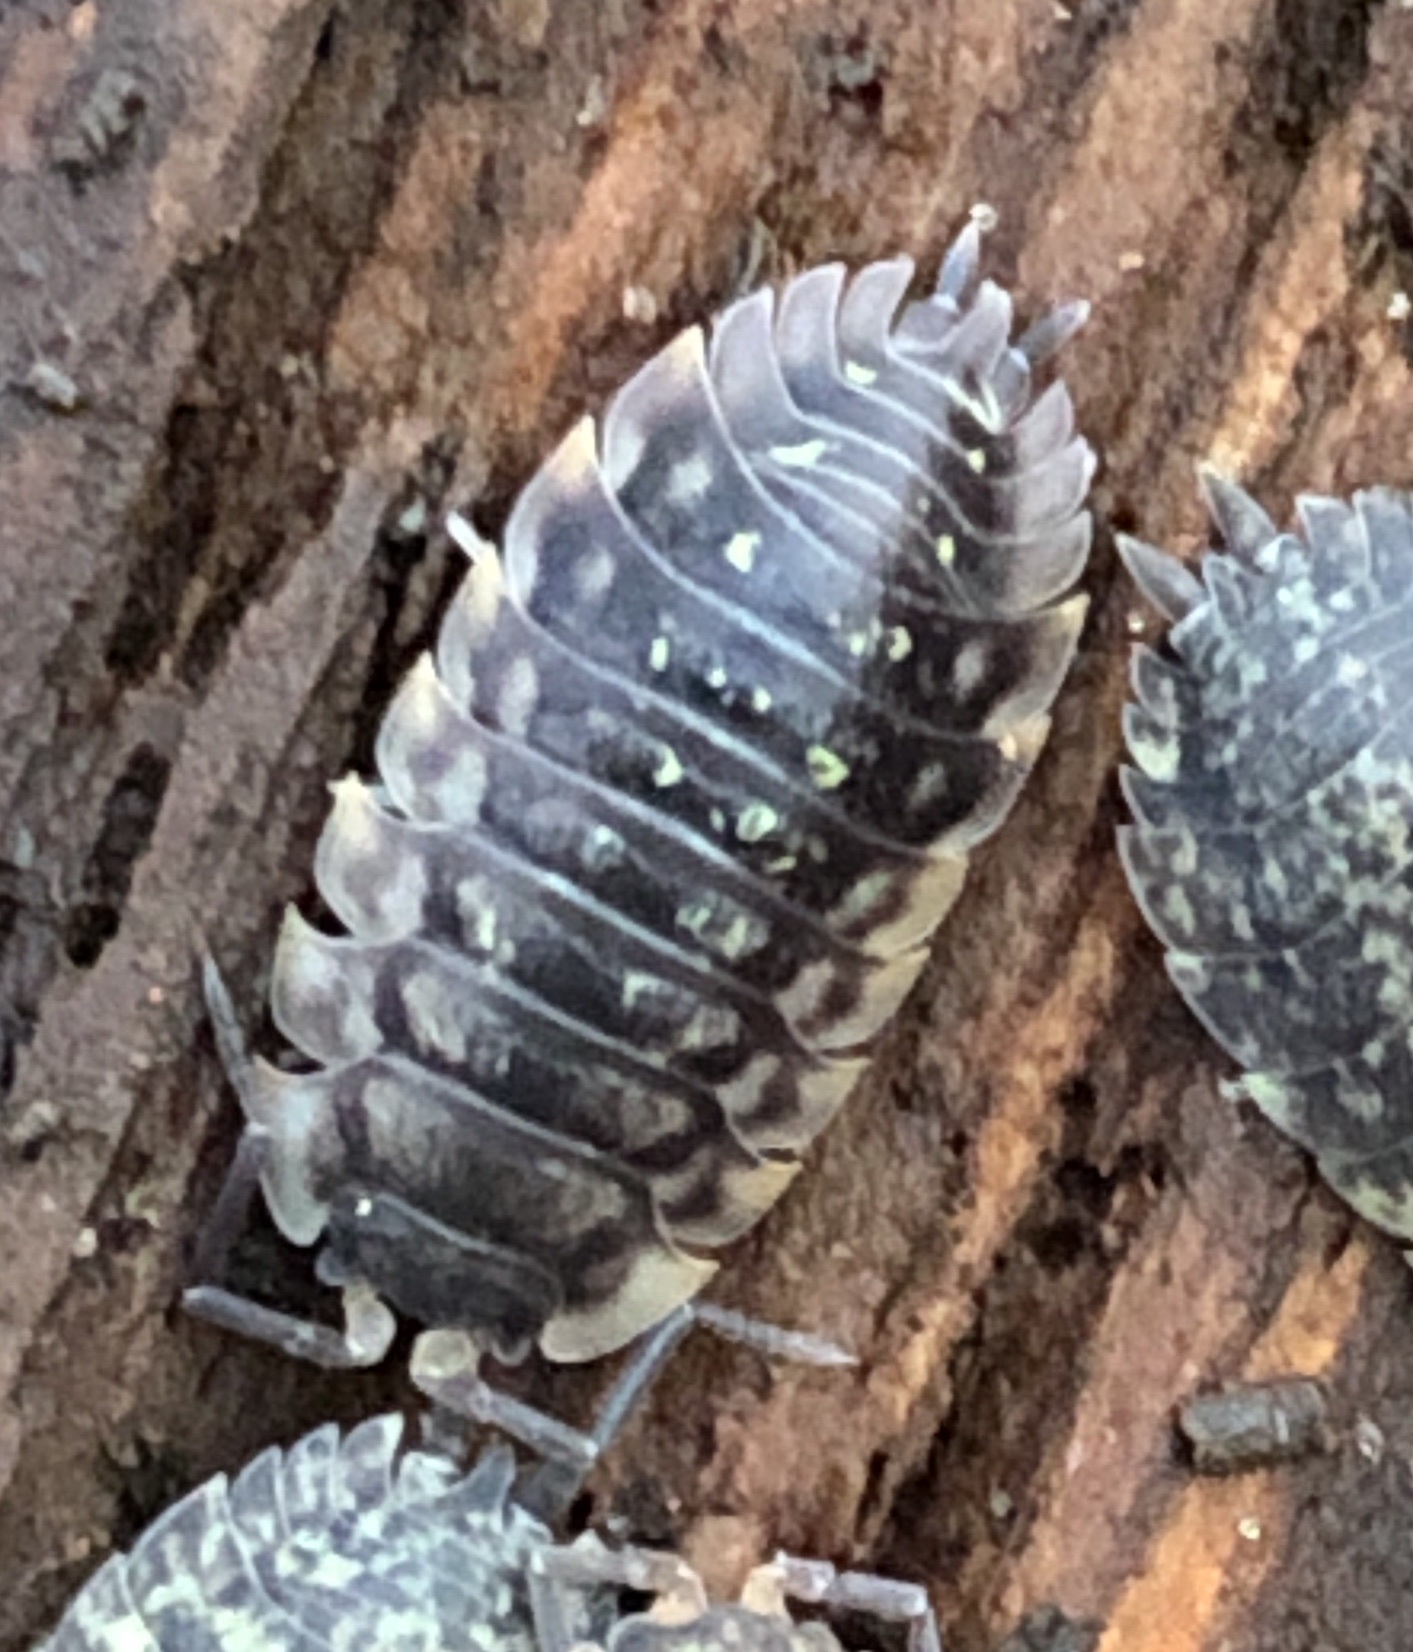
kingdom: Animalia
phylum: Arthropoda
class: Malacostraca
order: Isopoda
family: Oniscidae
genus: Oniscus
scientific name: Oniscus asellus
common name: Common shiny woodlouse
